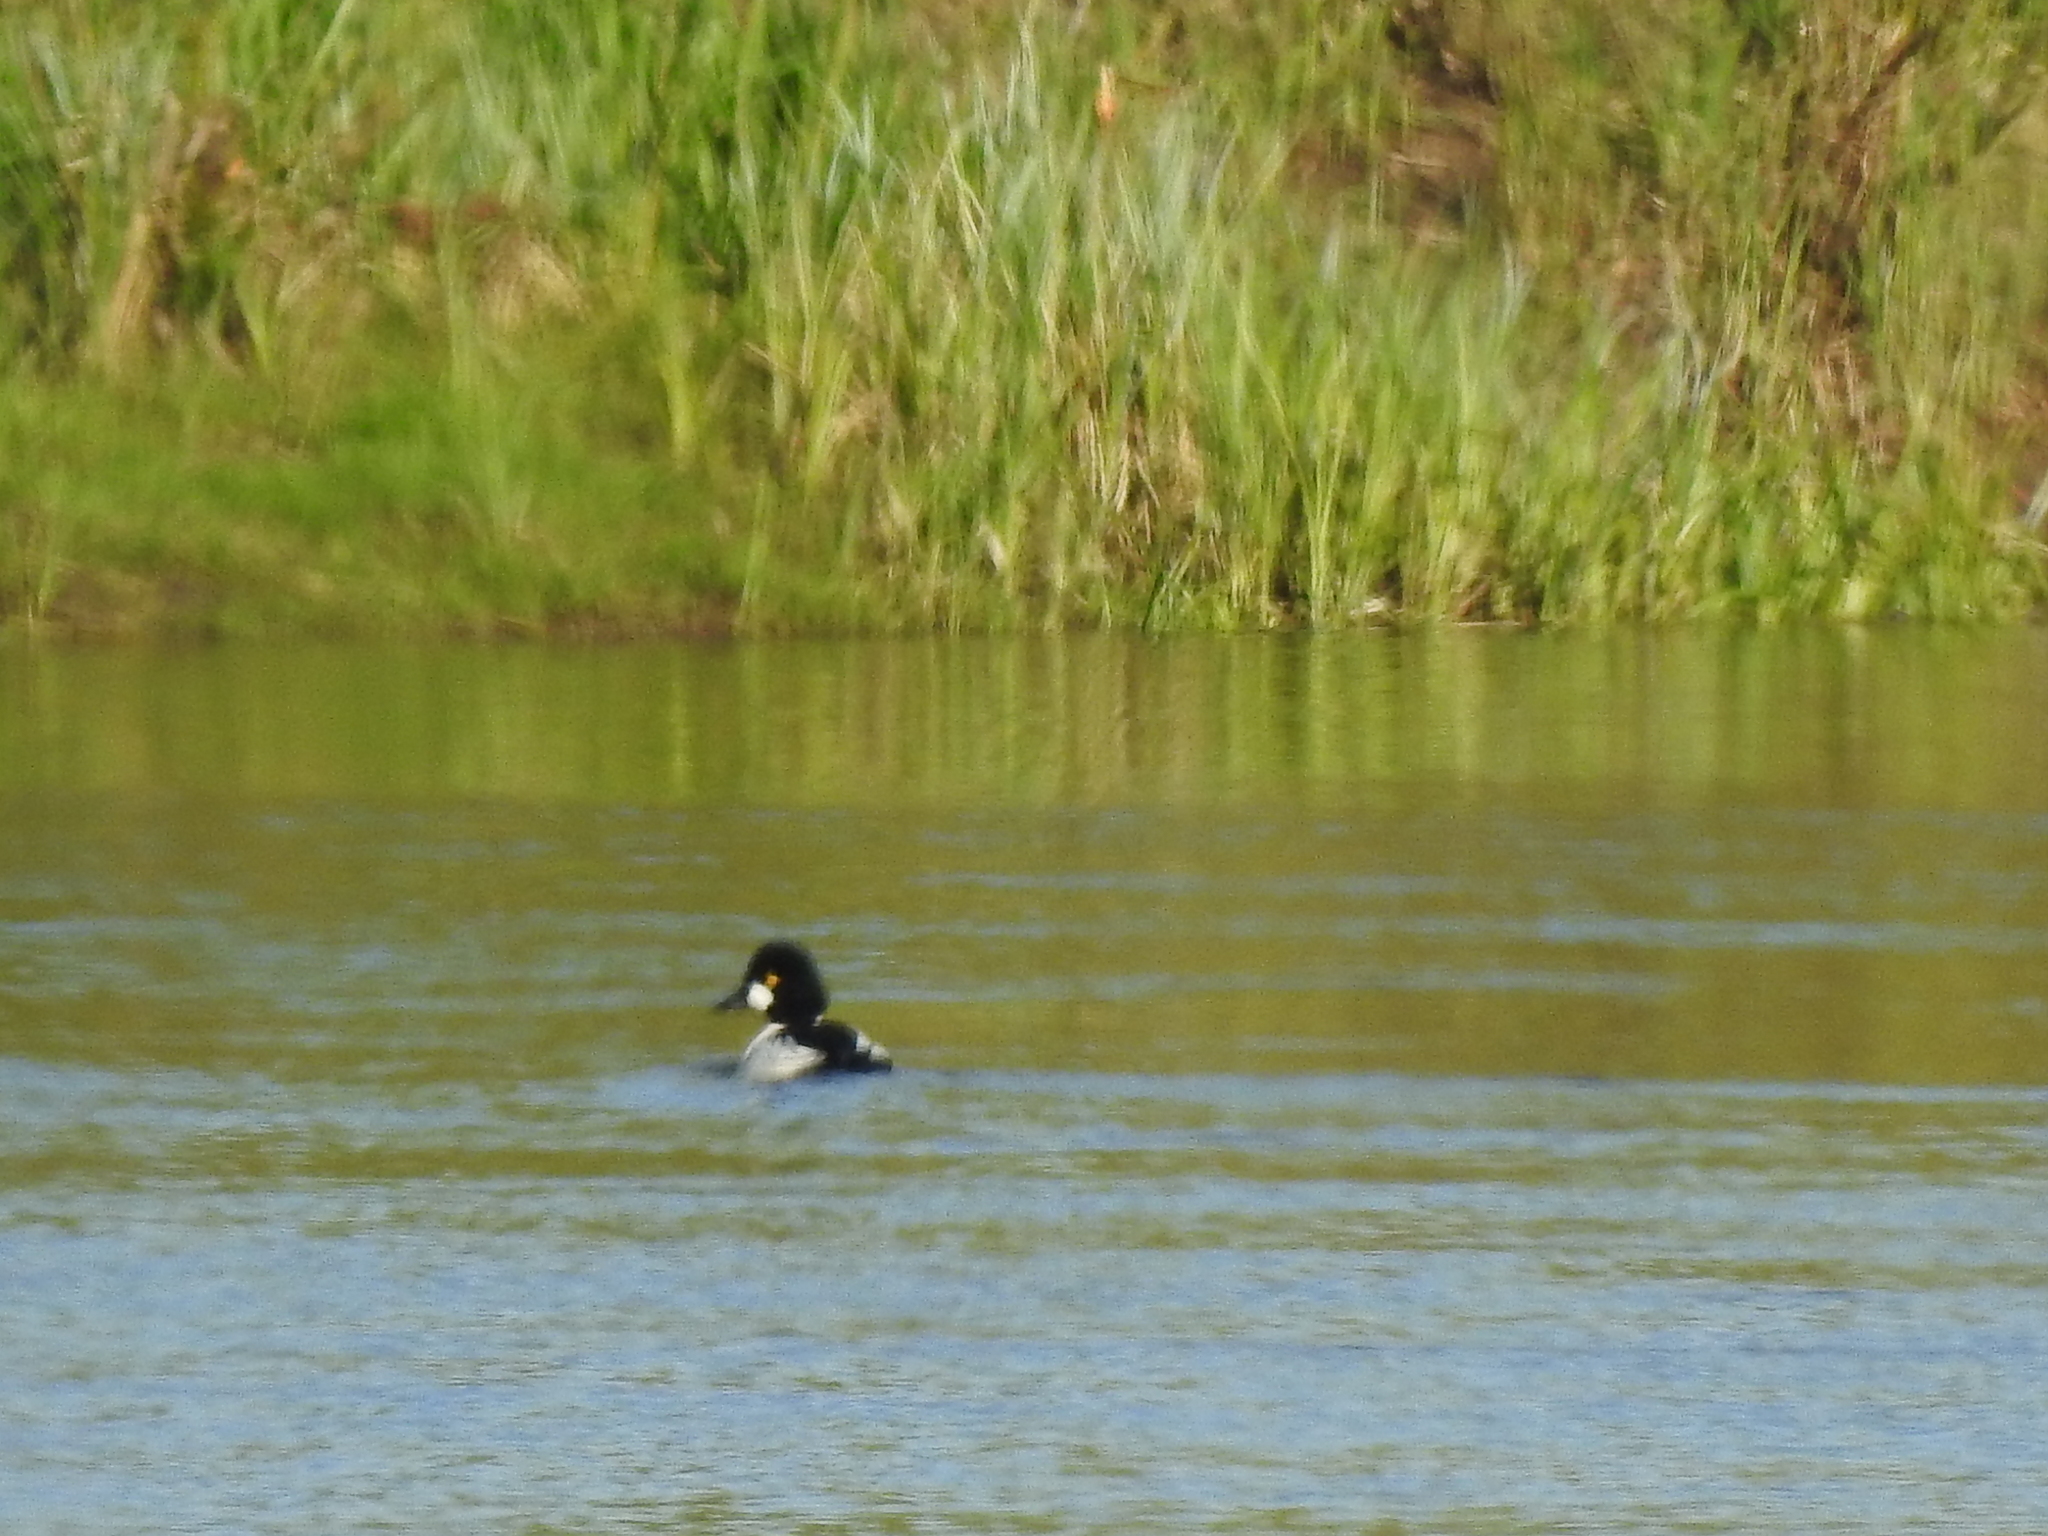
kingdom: Animalia
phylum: Chordata
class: Aves
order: Anseriformes
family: Anatidae
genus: Bucephala
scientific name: Bucephala clangula
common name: Common goldeneye
